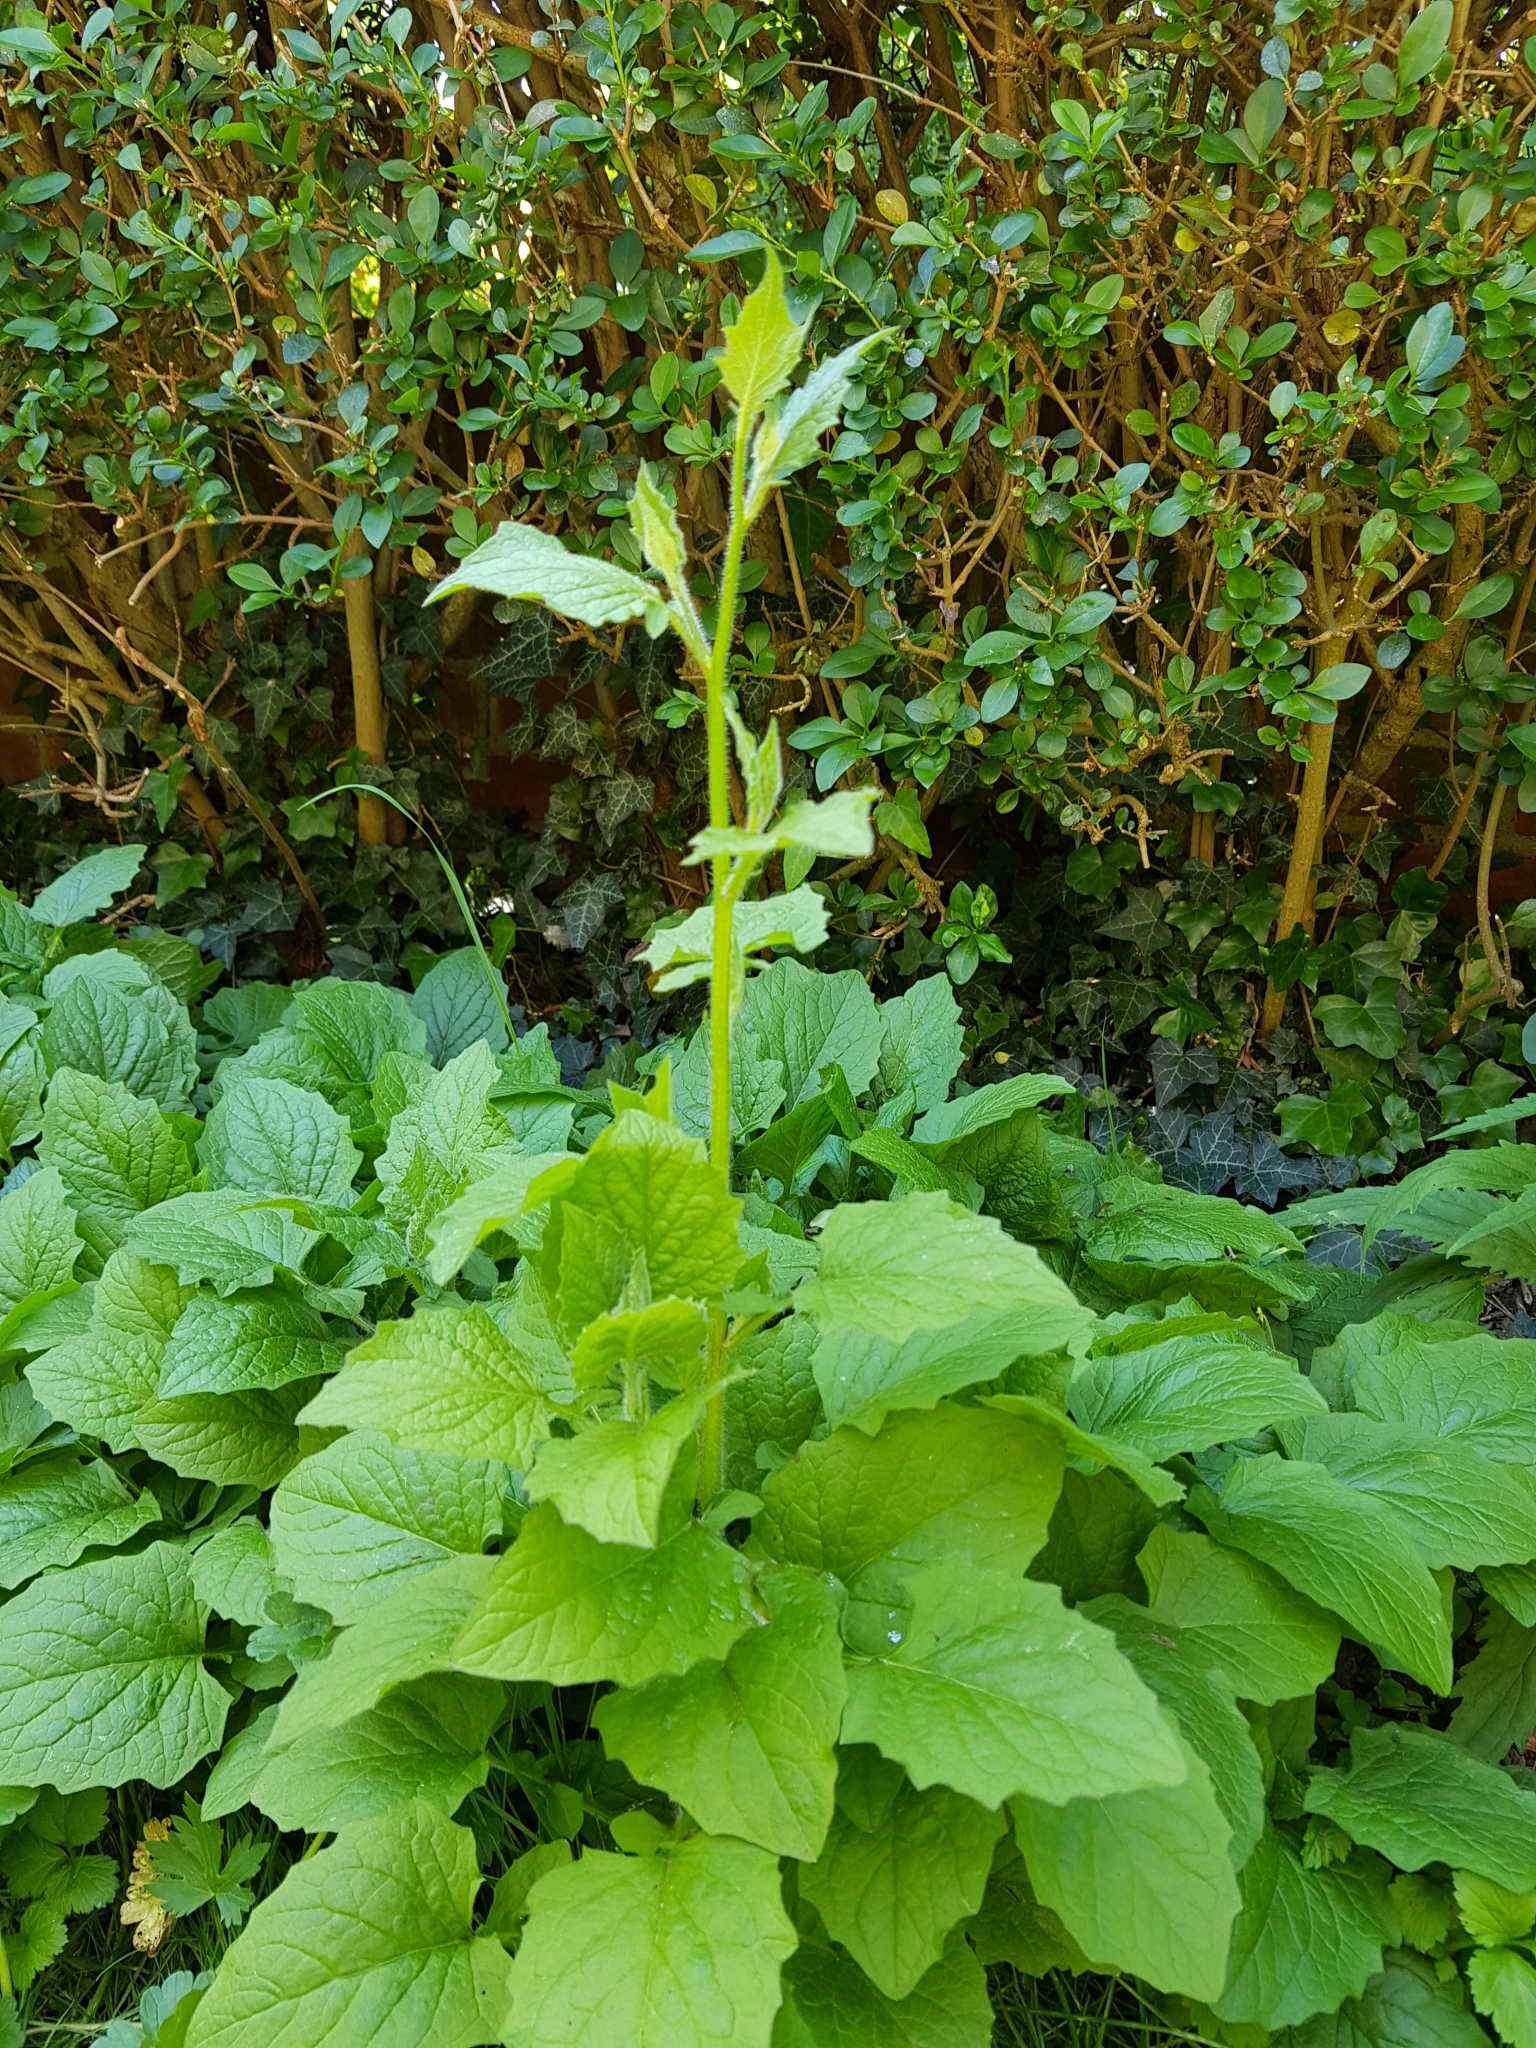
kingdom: Plantae
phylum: Tracheophyta
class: Magnoliopsida
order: Asterales
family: Asteraceae
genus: Lapsana
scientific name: Lapsana communis
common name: Nipplewort
